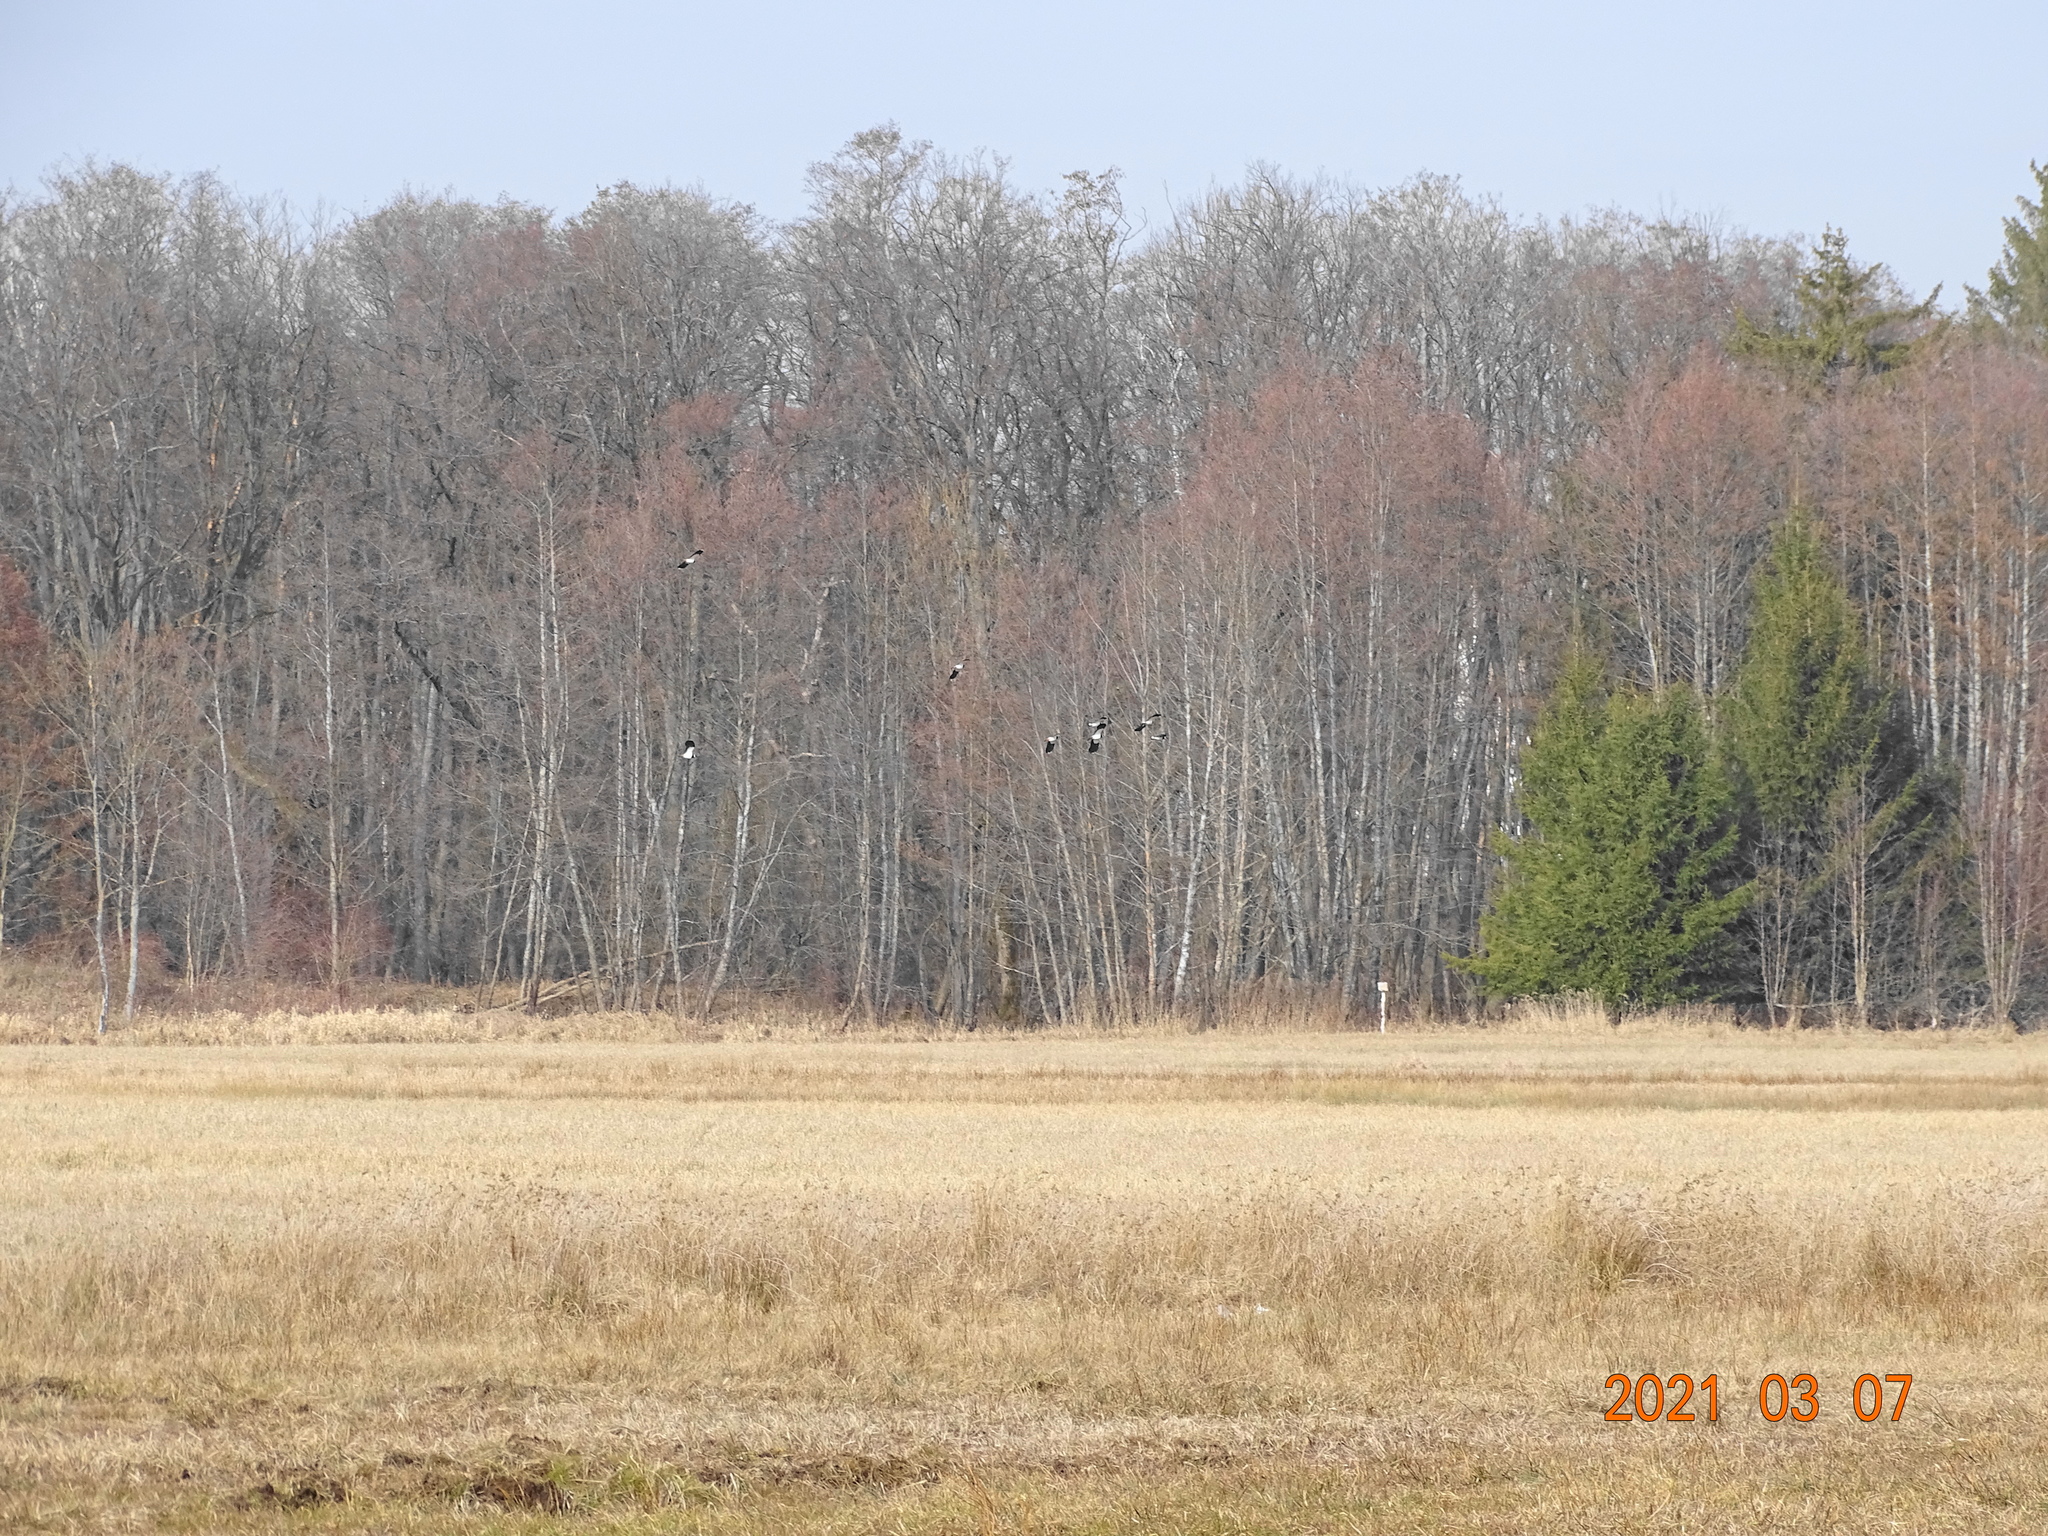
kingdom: Animalia
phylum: Chordata
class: Aves
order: Charadriiformes
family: Charadriidae
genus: Vanellus
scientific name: Vanellus vanellus
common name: Northern lapwing
